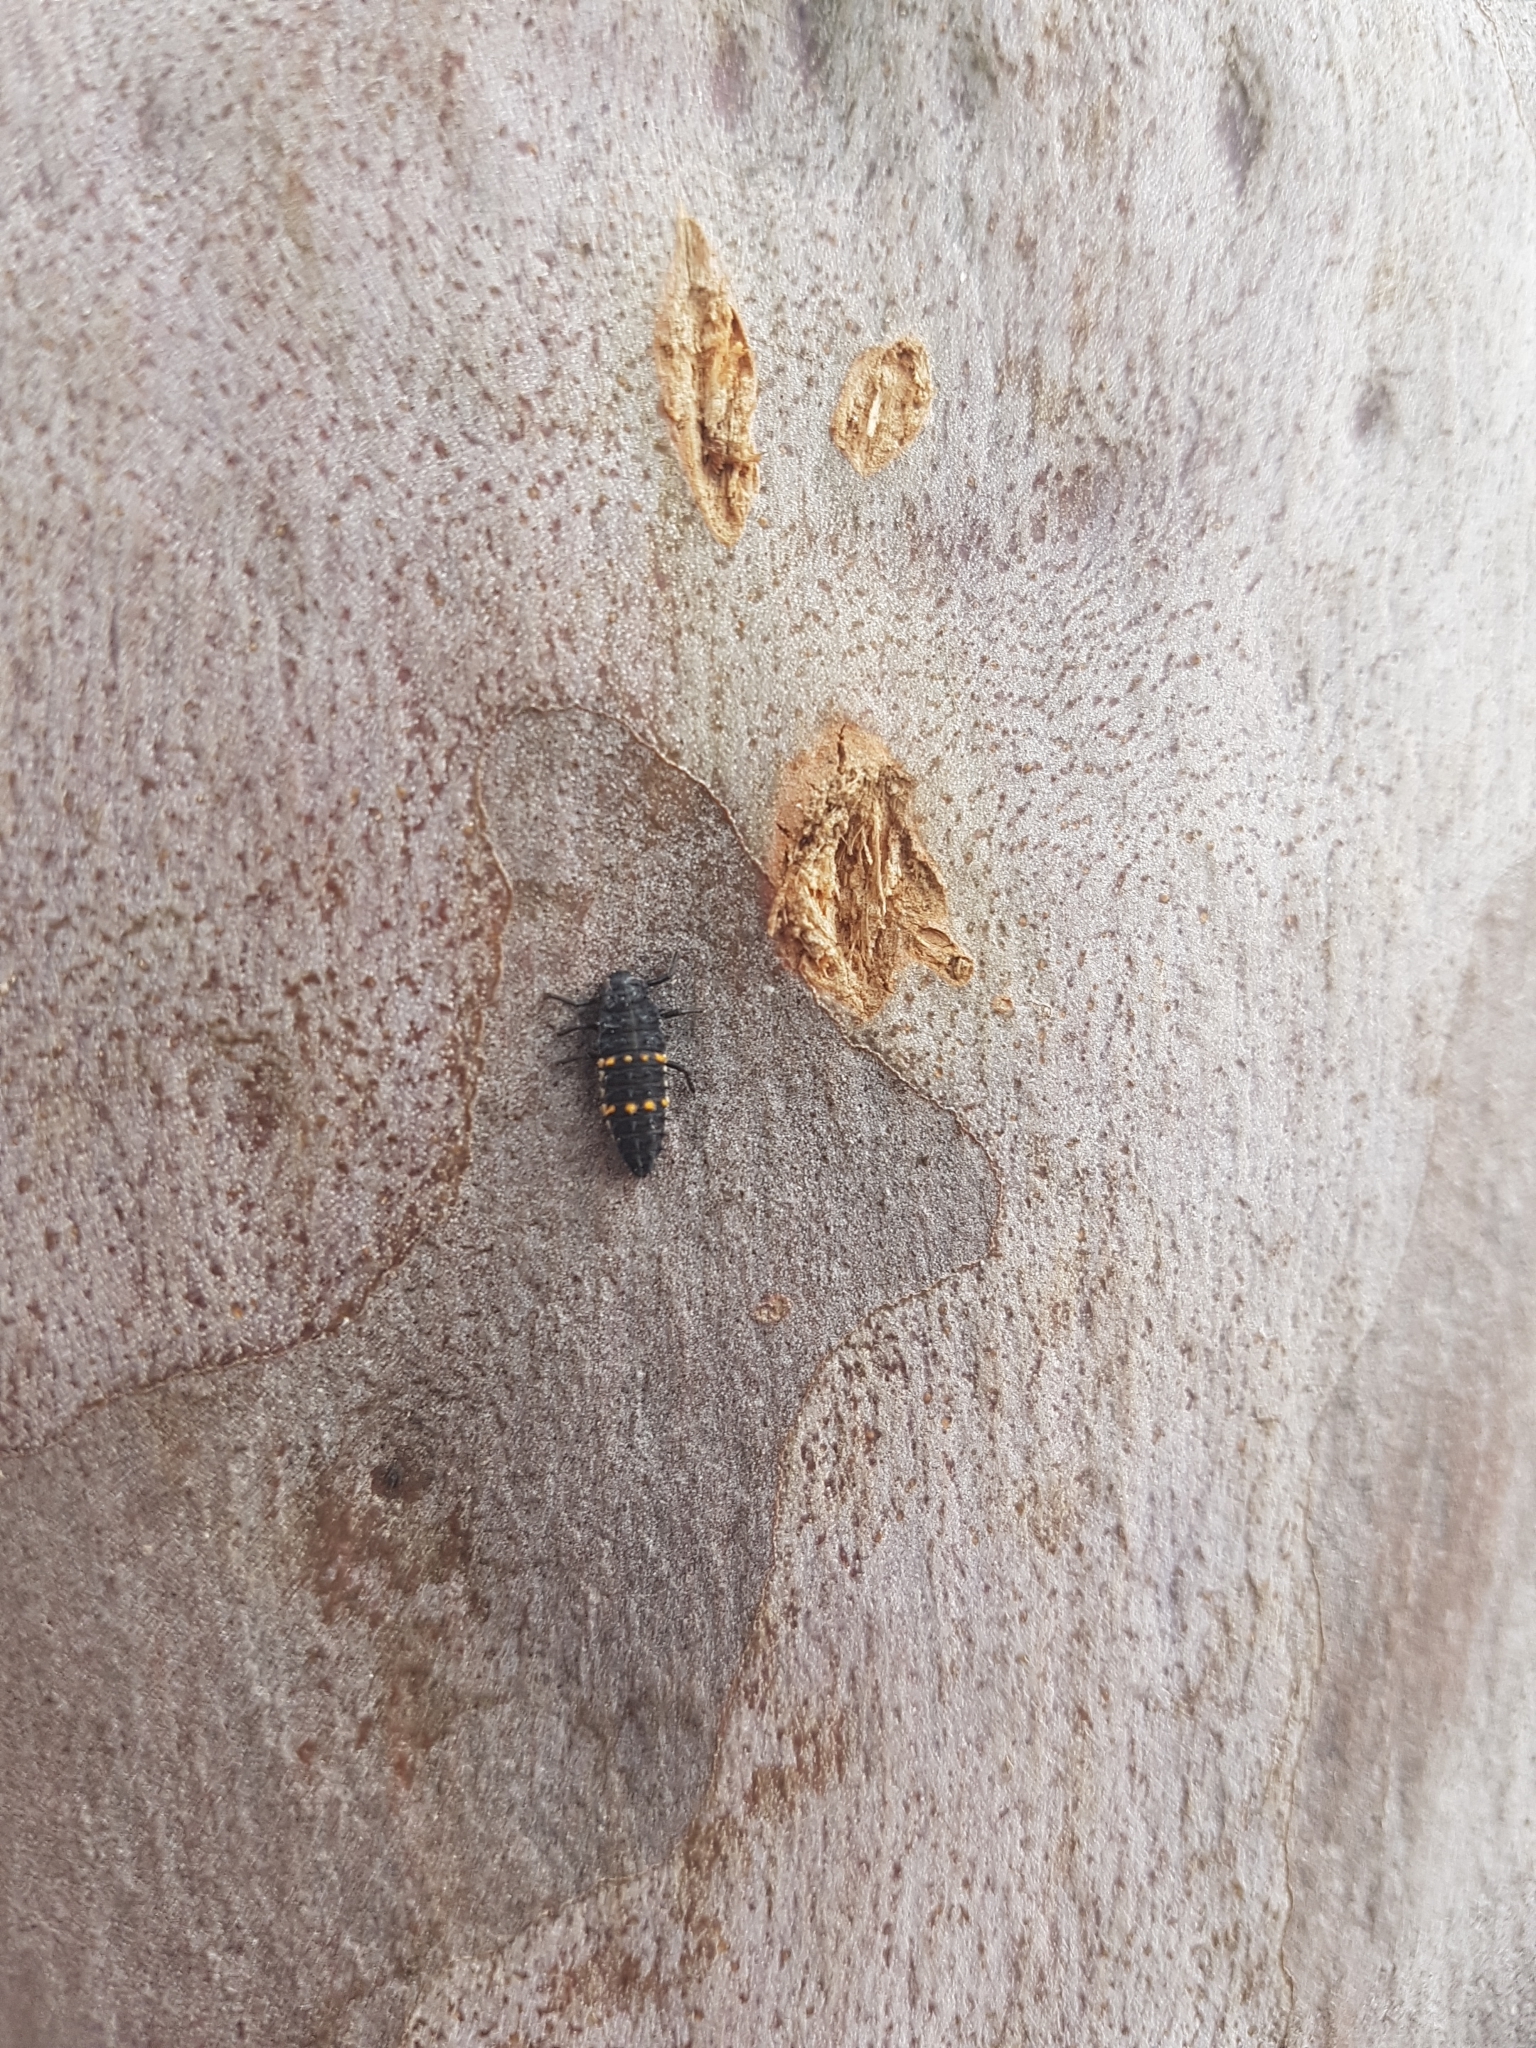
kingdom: Animalia
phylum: Arthropoda
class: Insecta
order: Coleoptera
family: Coccinellidae
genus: Harmonia
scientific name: Harmonia conformis
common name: Common spotted ladybird beetle
